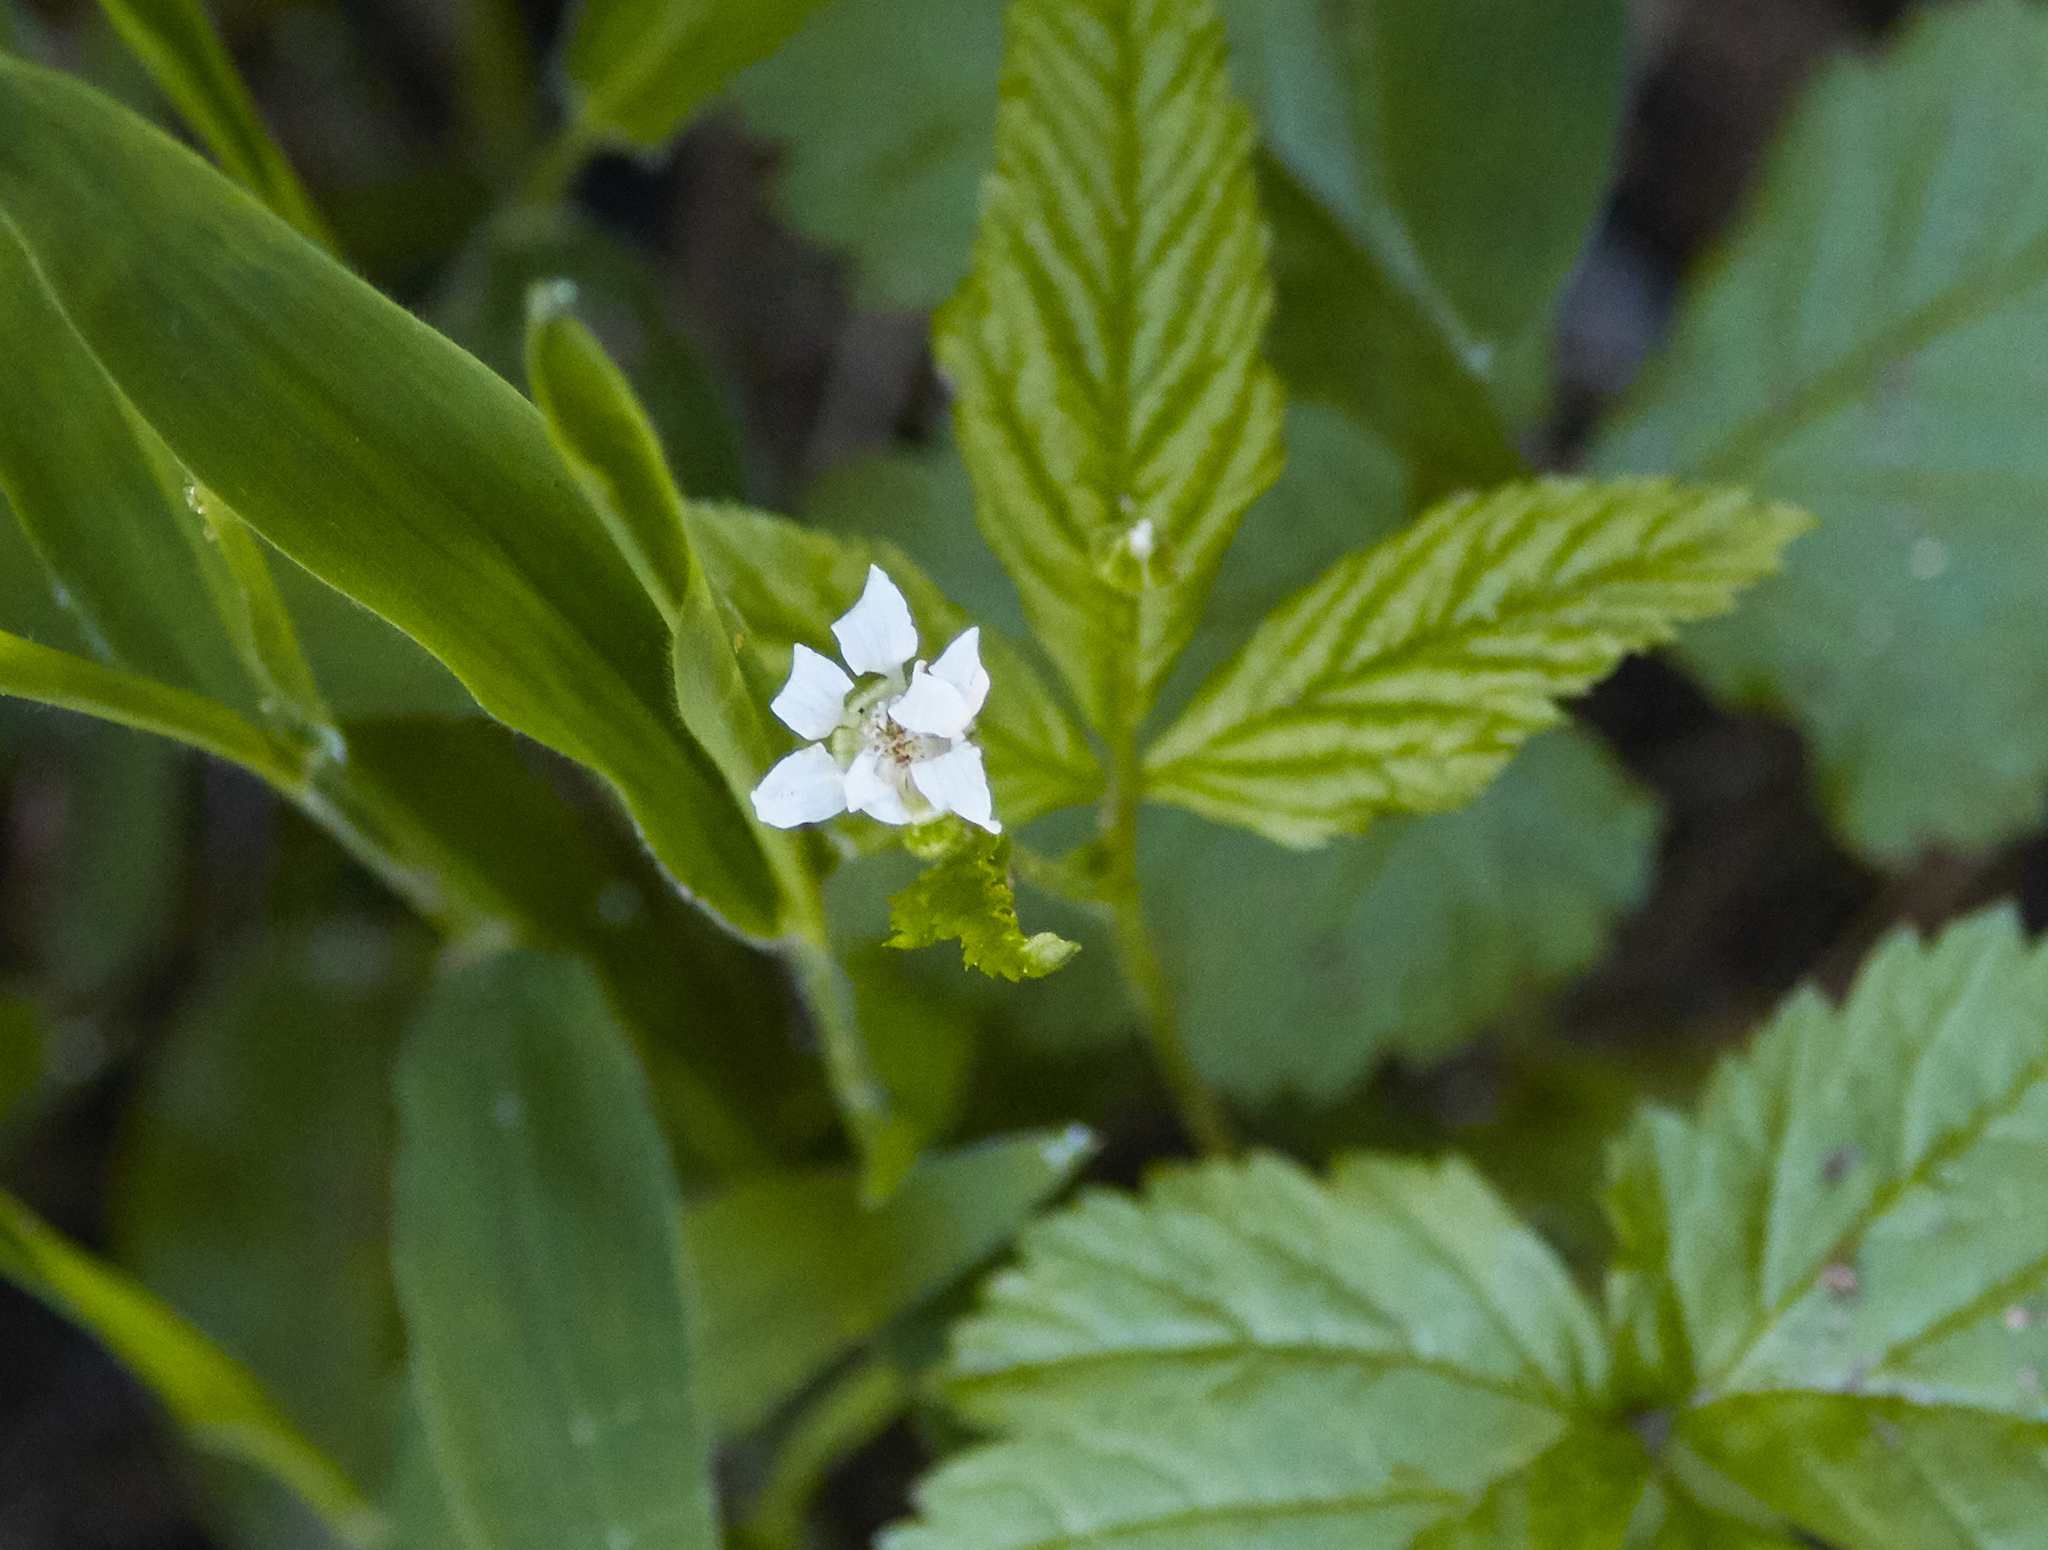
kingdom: Plantae
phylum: Tracheophyta
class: Magnoliopsida
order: Rosales
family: Rosaceae
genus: Rubus
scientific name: Rubus pubescens
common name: Dwarf raspberry
